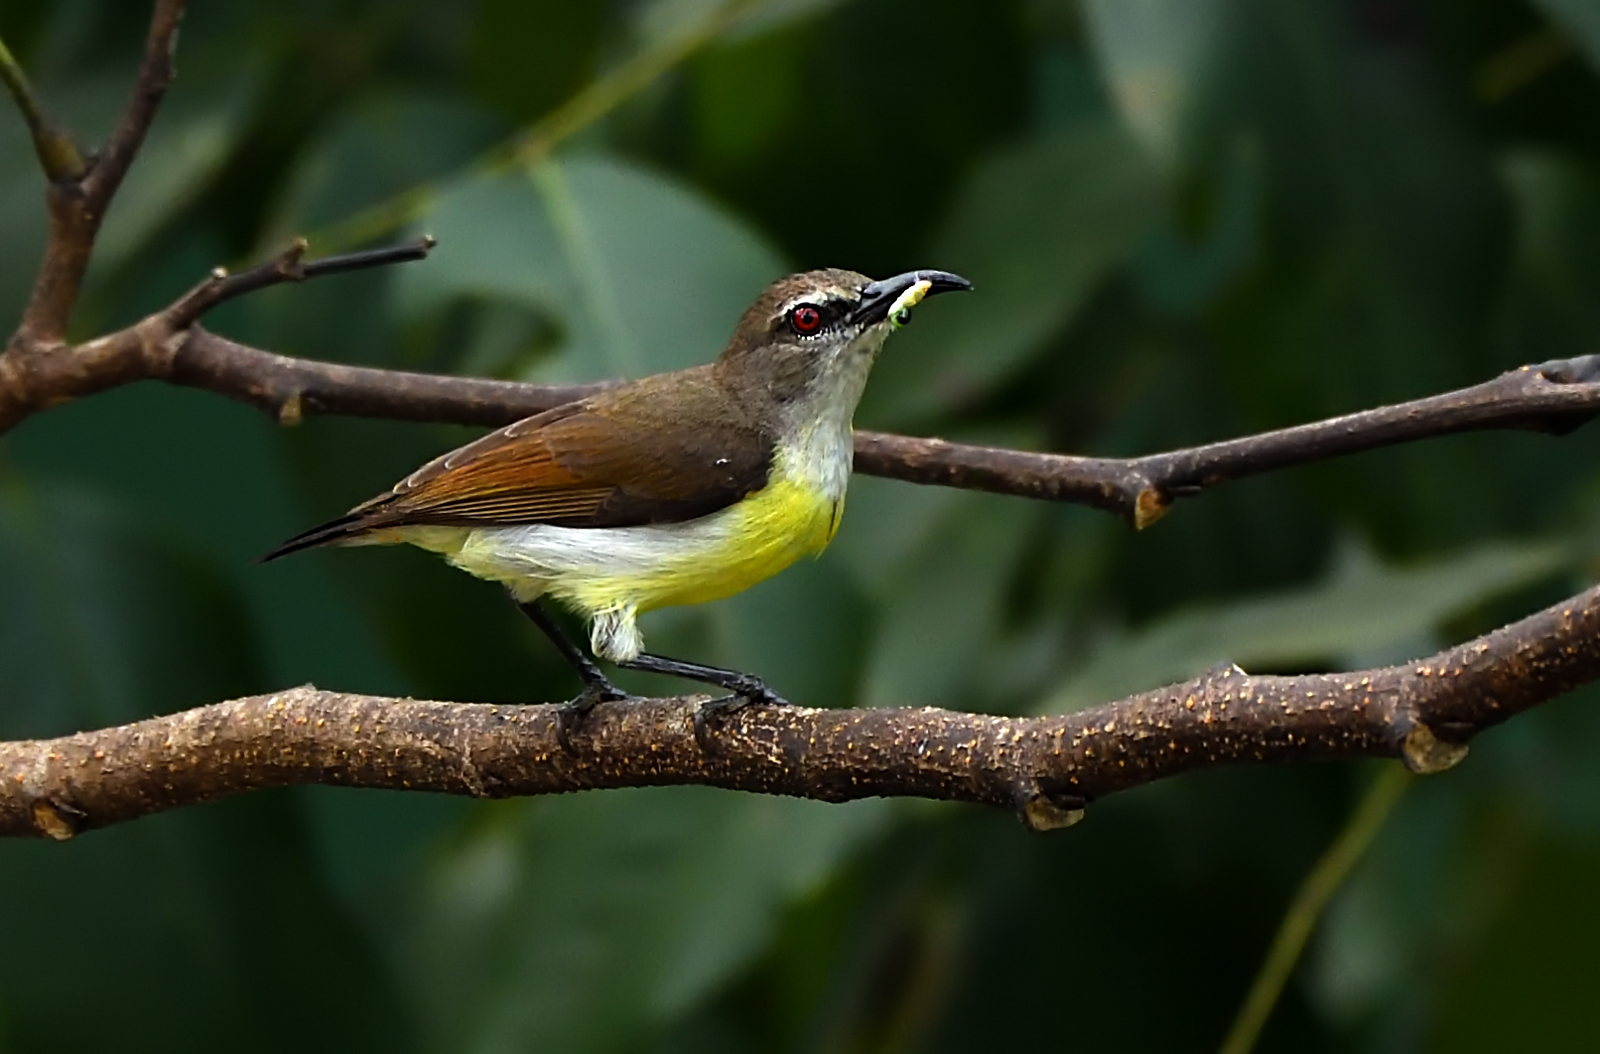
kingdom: Animalia
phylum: Chordata
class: Aves
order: Passeriformes
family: Nectariniidae
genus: Leptocoma
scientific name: Leptocoma zeylonica
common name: Purple-rumped sunbird
